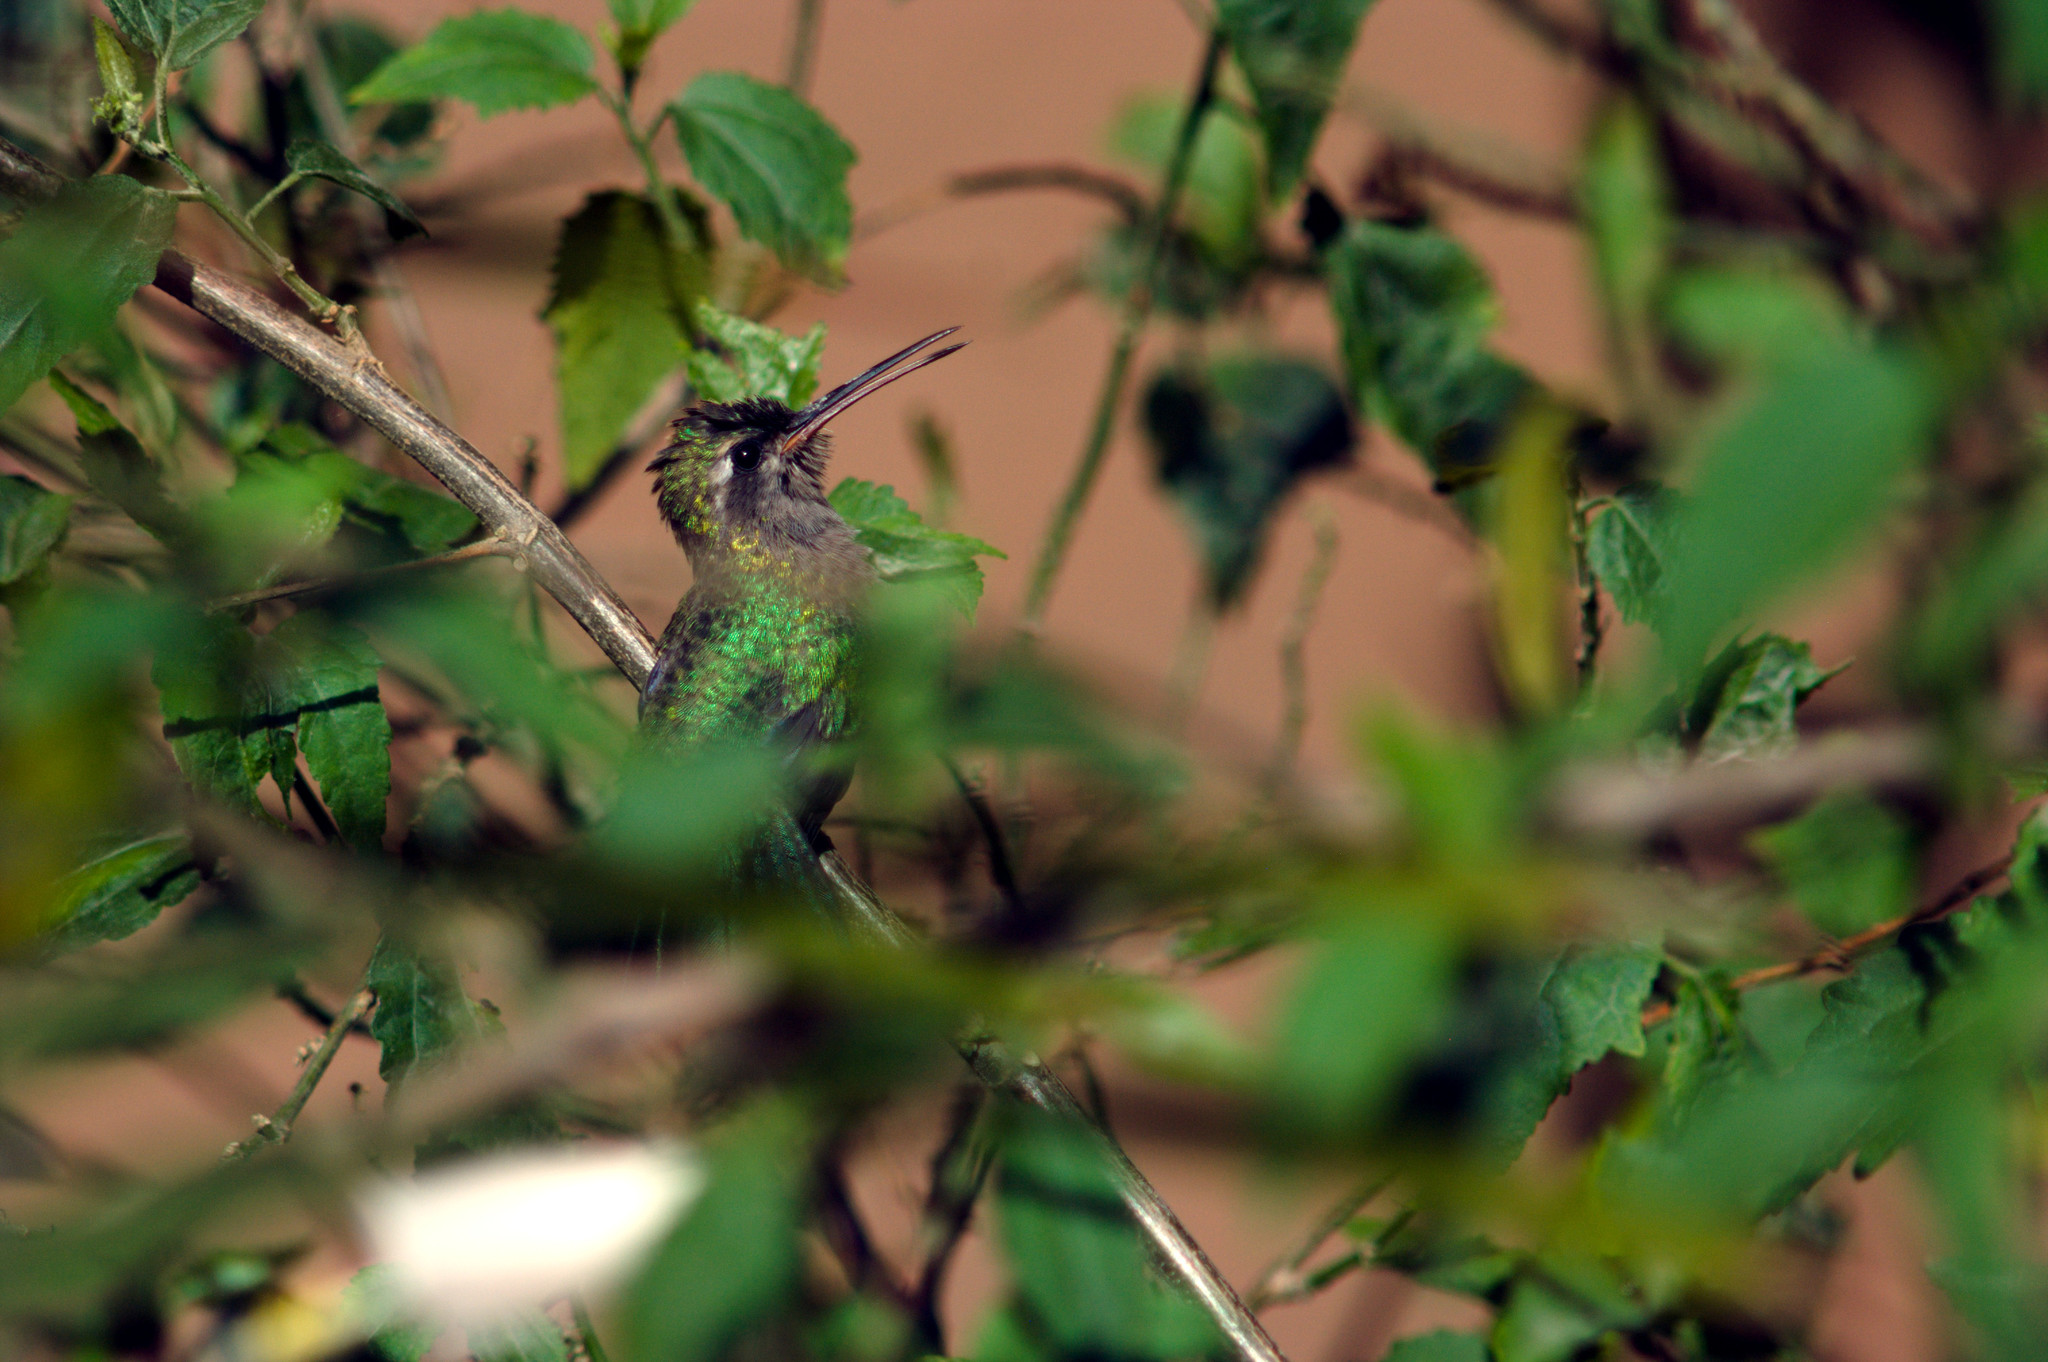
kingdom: Animalia
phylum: Chordata
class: Aves
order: Apodiformes
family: Trochilidae
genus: Cynanthus
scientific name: Cynanthus latirostris
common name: Broad-billed hummingbird
